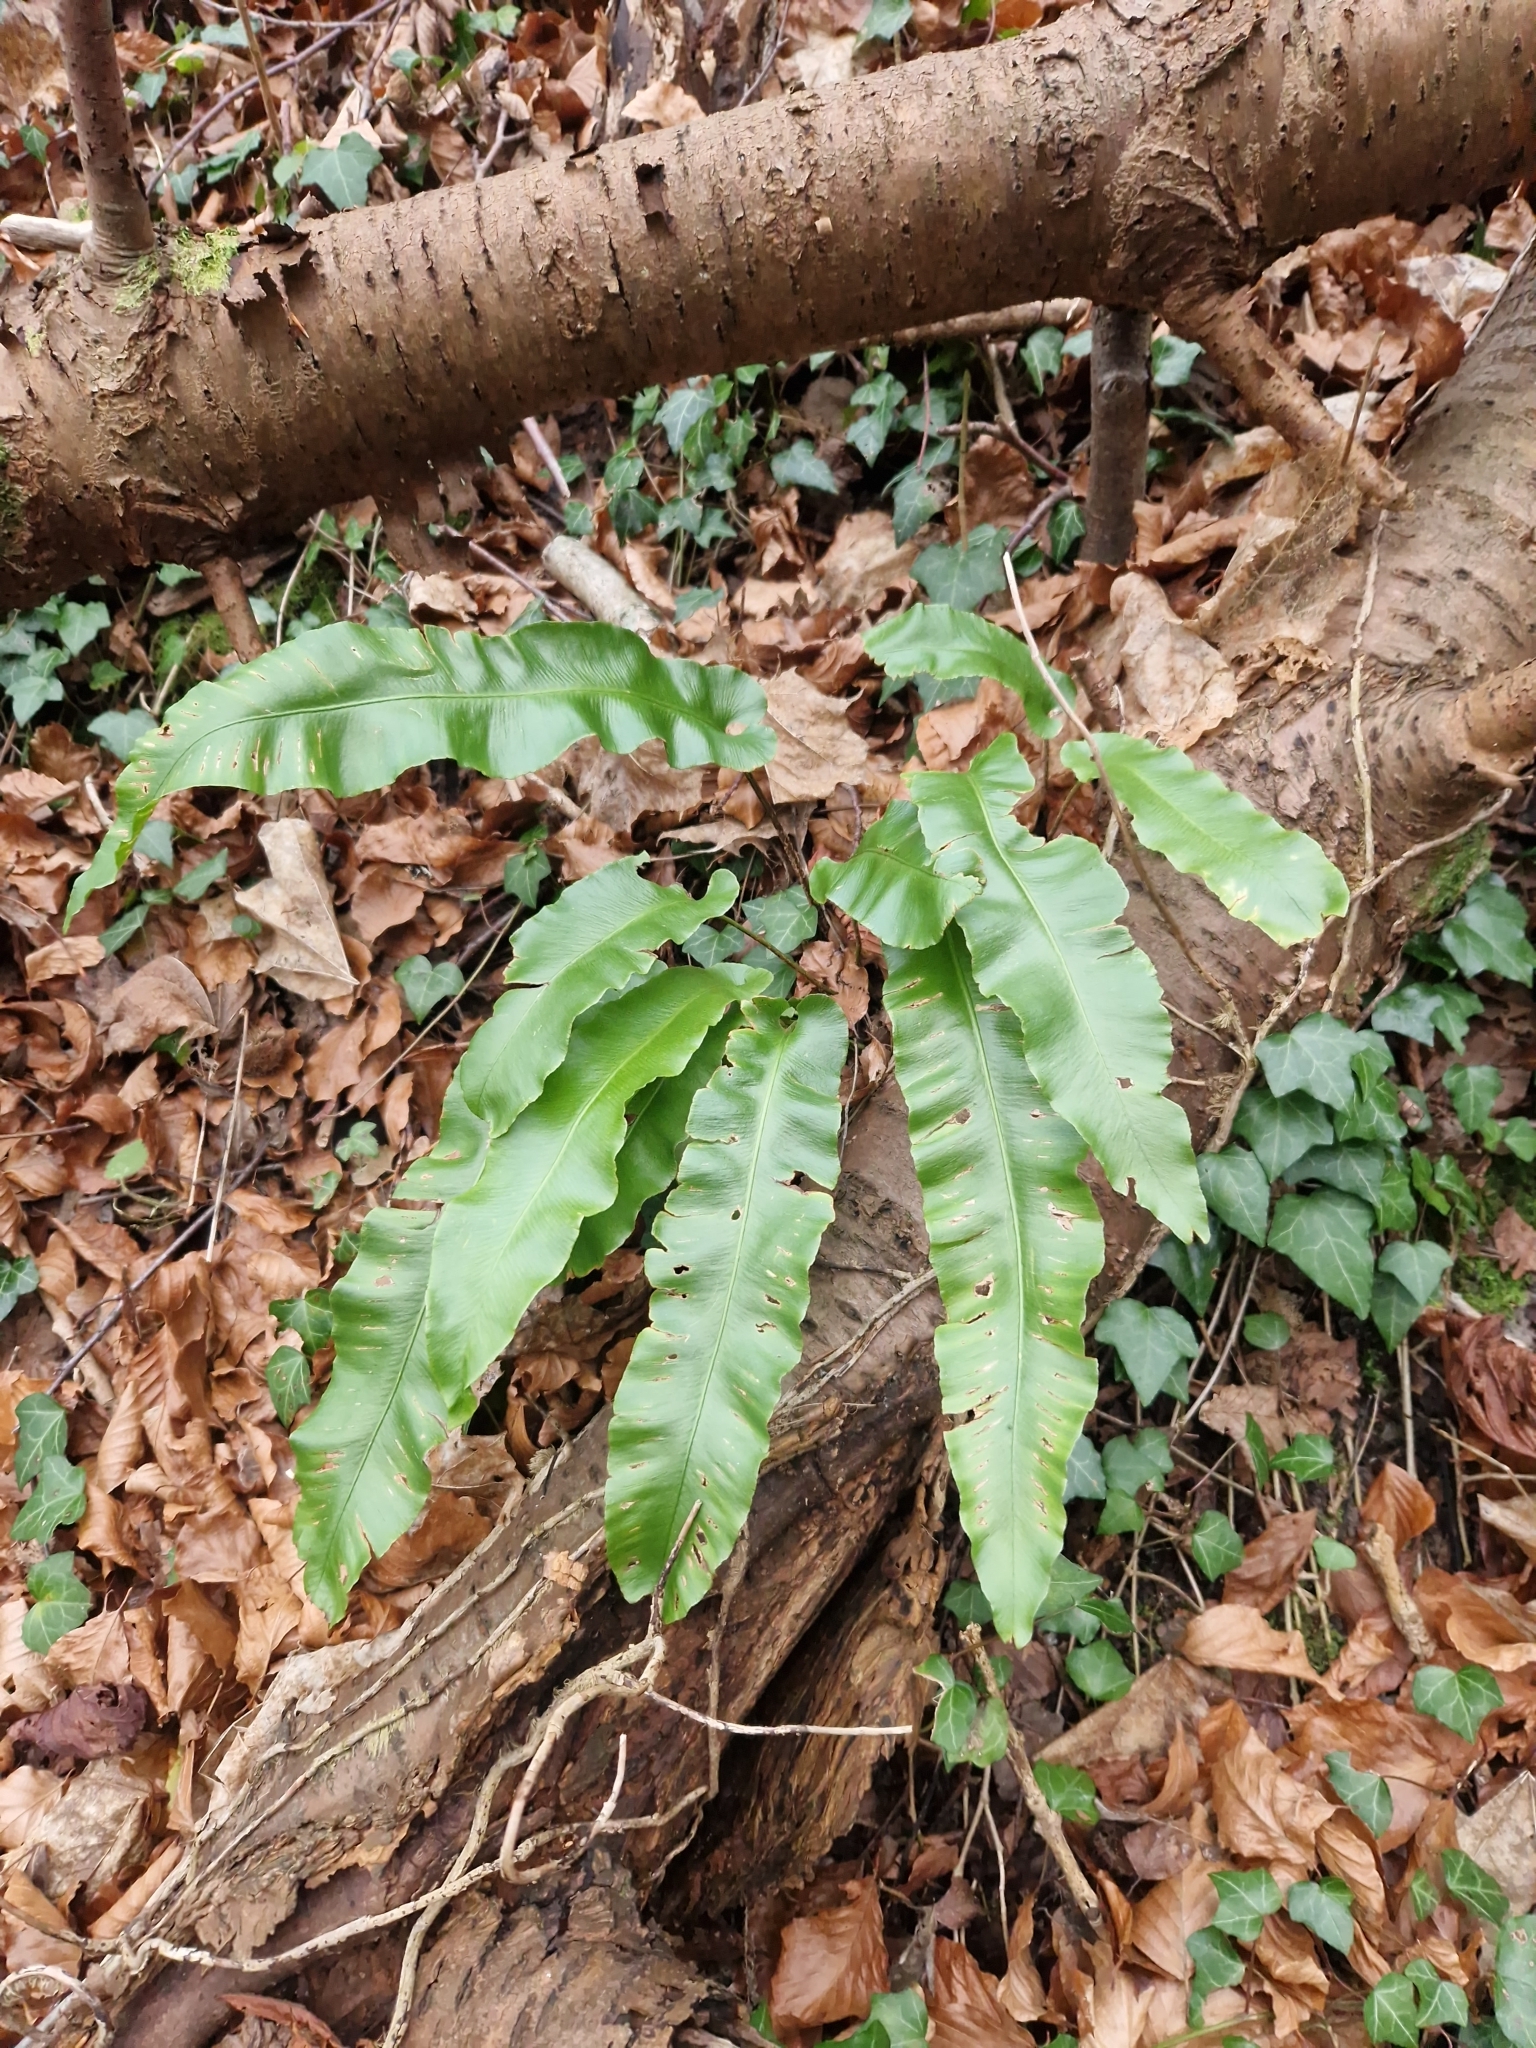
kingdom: Plantae
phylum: Tracheophyta
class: Polypodiopsida
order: Polypodiales
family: Aspleniaceae
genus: Asplenium
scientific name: Asplenium scolopendrium
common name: Hart's-tongue fern
